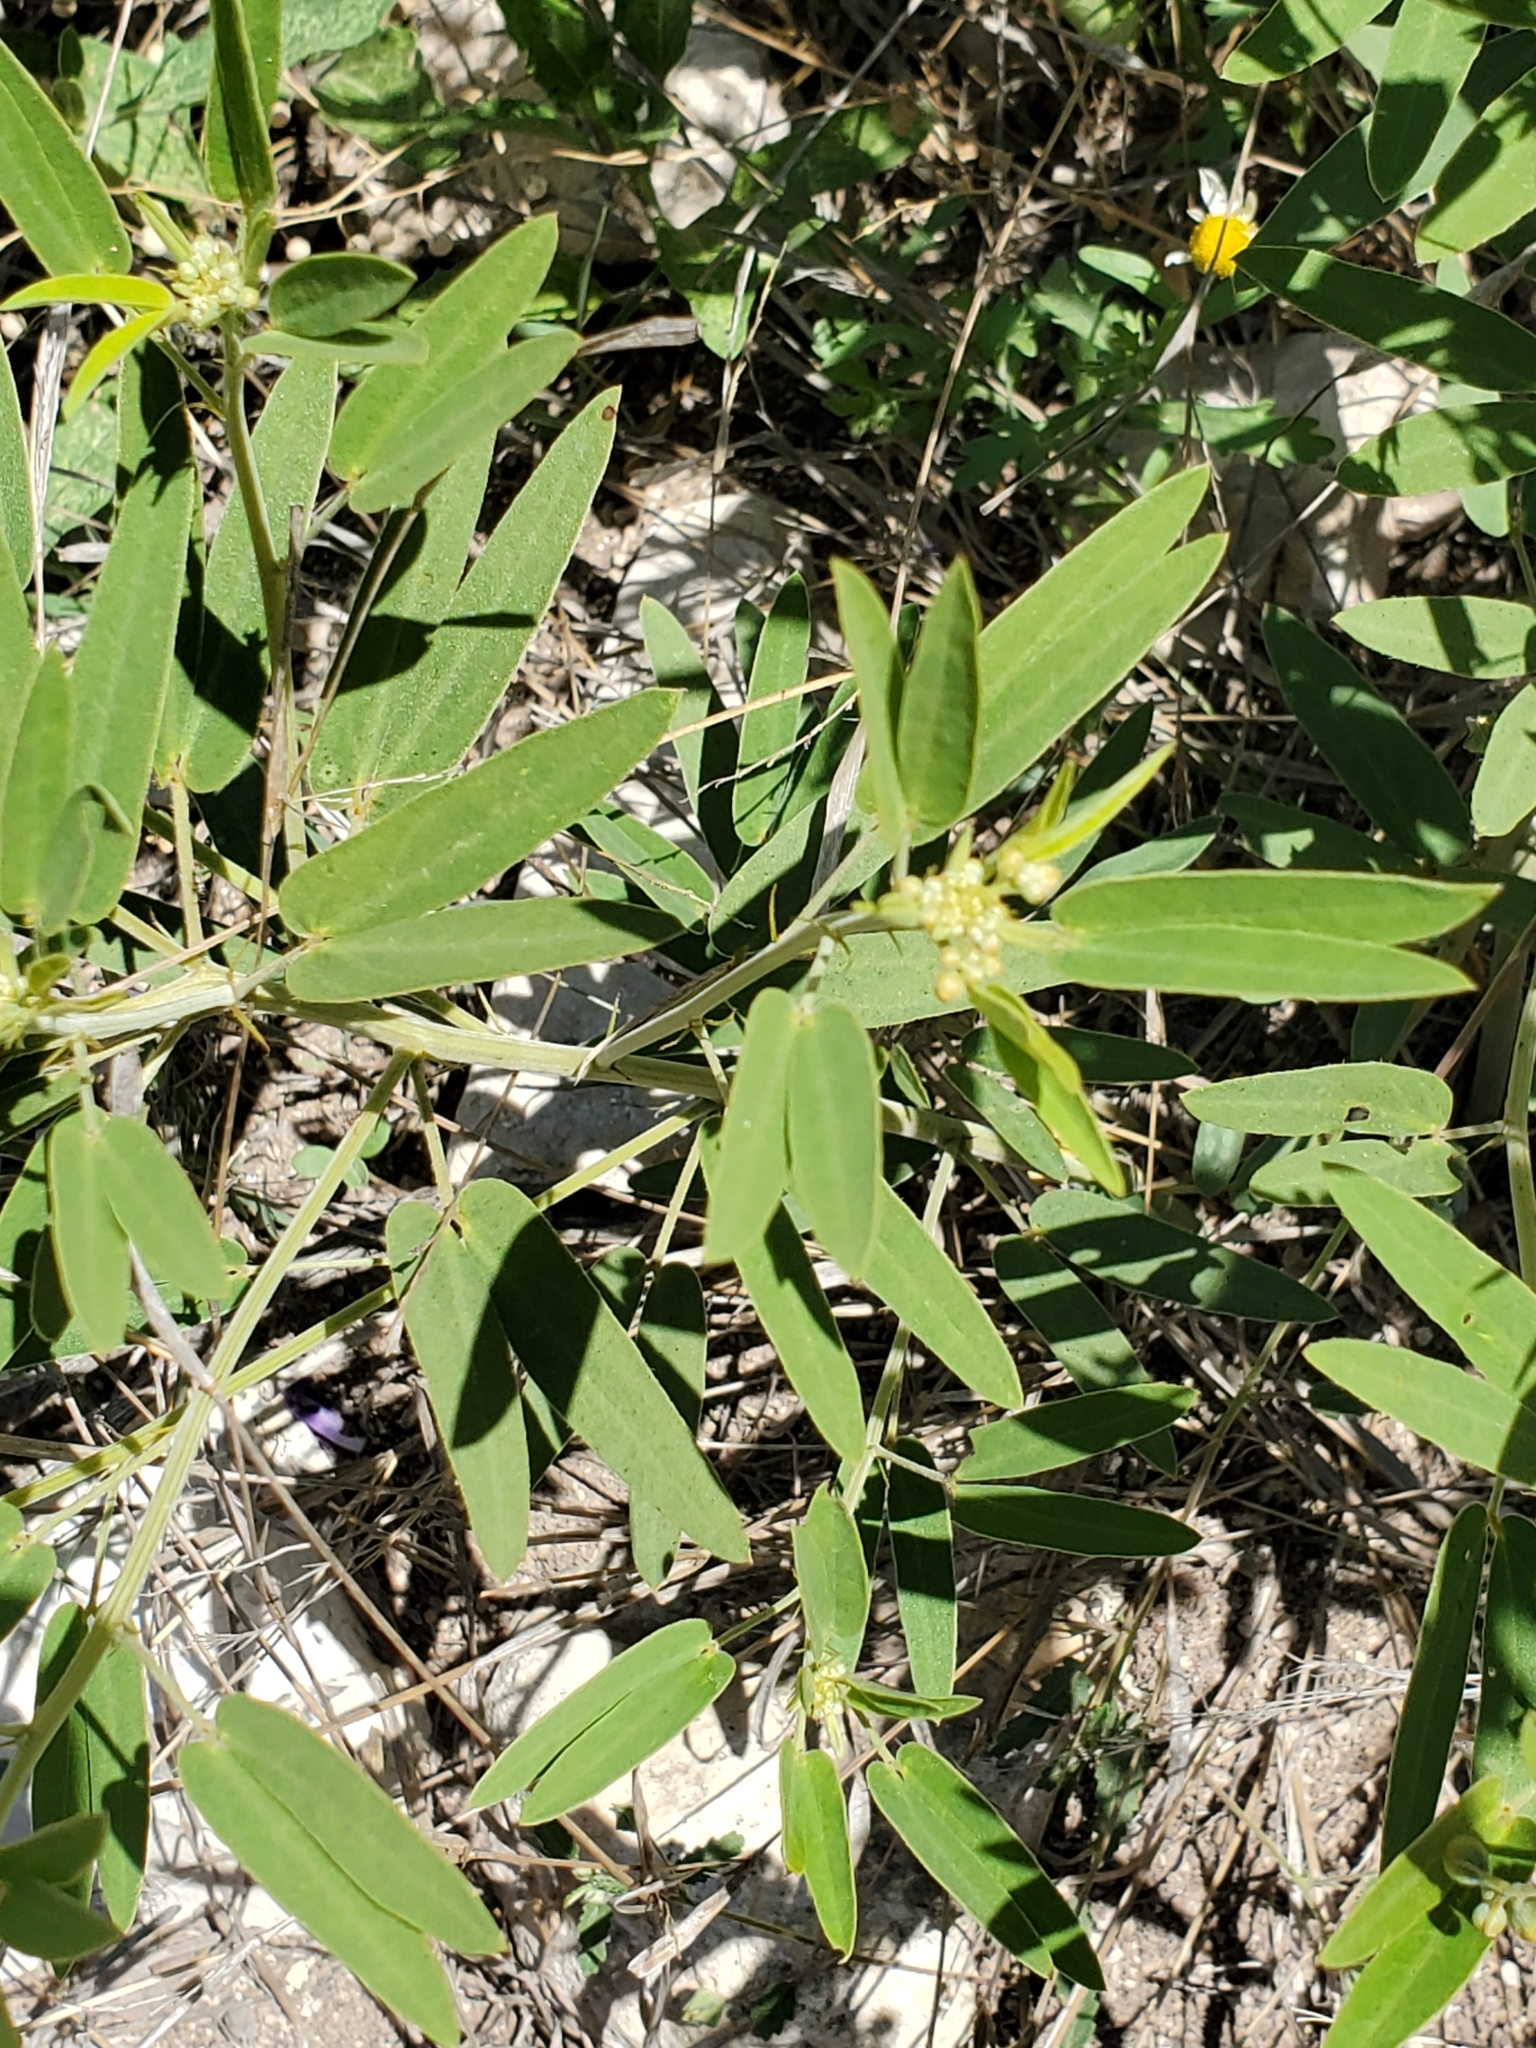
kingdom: Plantae
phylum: Tracheophyta
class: Magnoliopsida
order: Fabales
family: Fabaceae
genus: Senna
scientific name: Senna roemeriana
